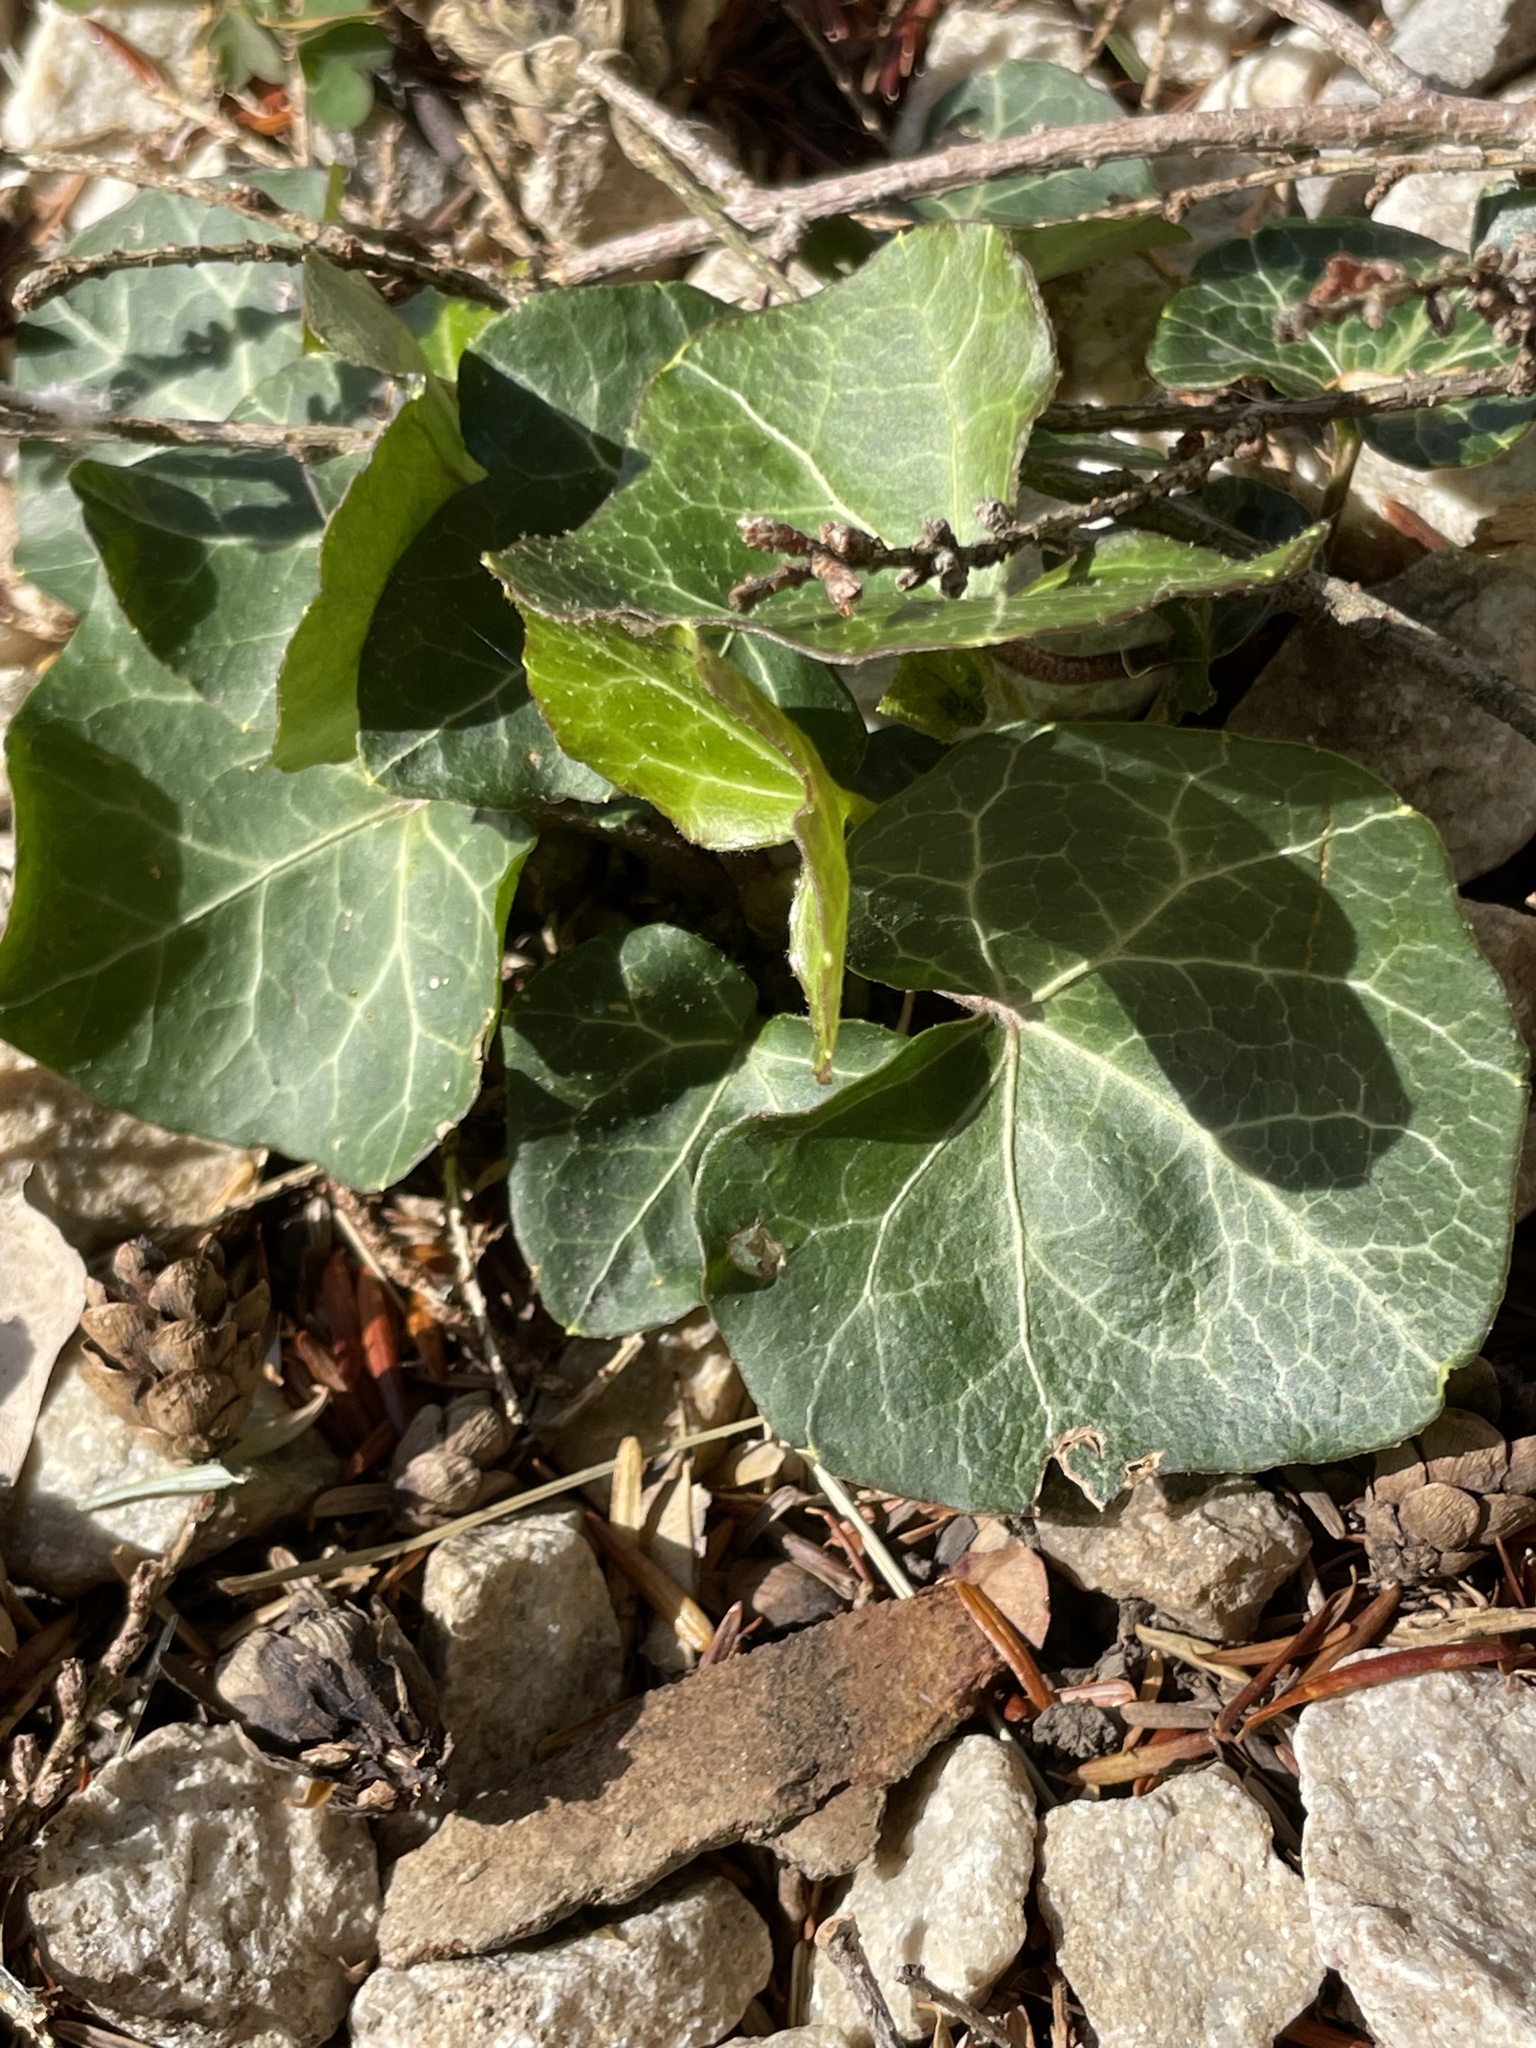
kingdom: Plantae
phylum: Tracheophyta
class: Magnoliopsida
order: Apiales
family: Araliaceae
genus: Hedera
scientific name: Hedera helix
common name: Ivy
